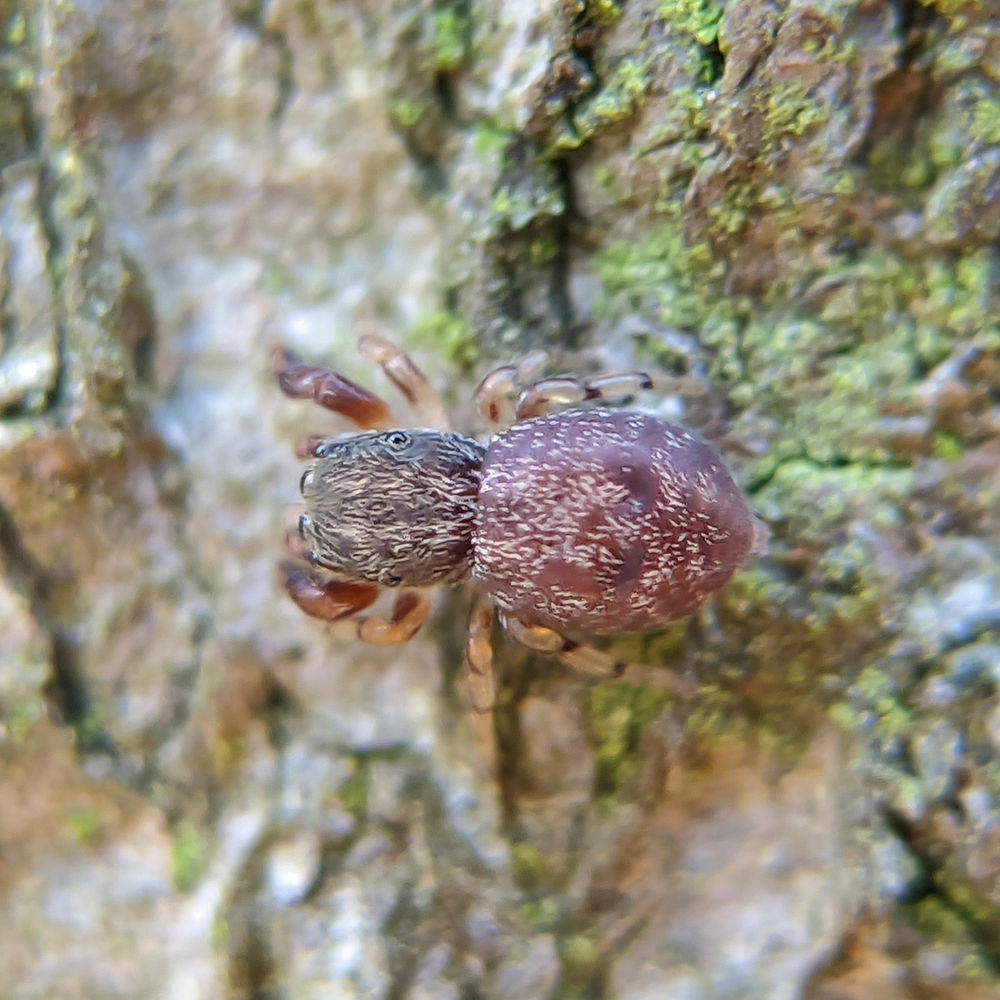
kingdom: Animalia
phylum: Arthropoda
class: Arachnida
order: Araneae
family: Salticidae
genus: Ballus
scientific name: Ballus chalybeius
